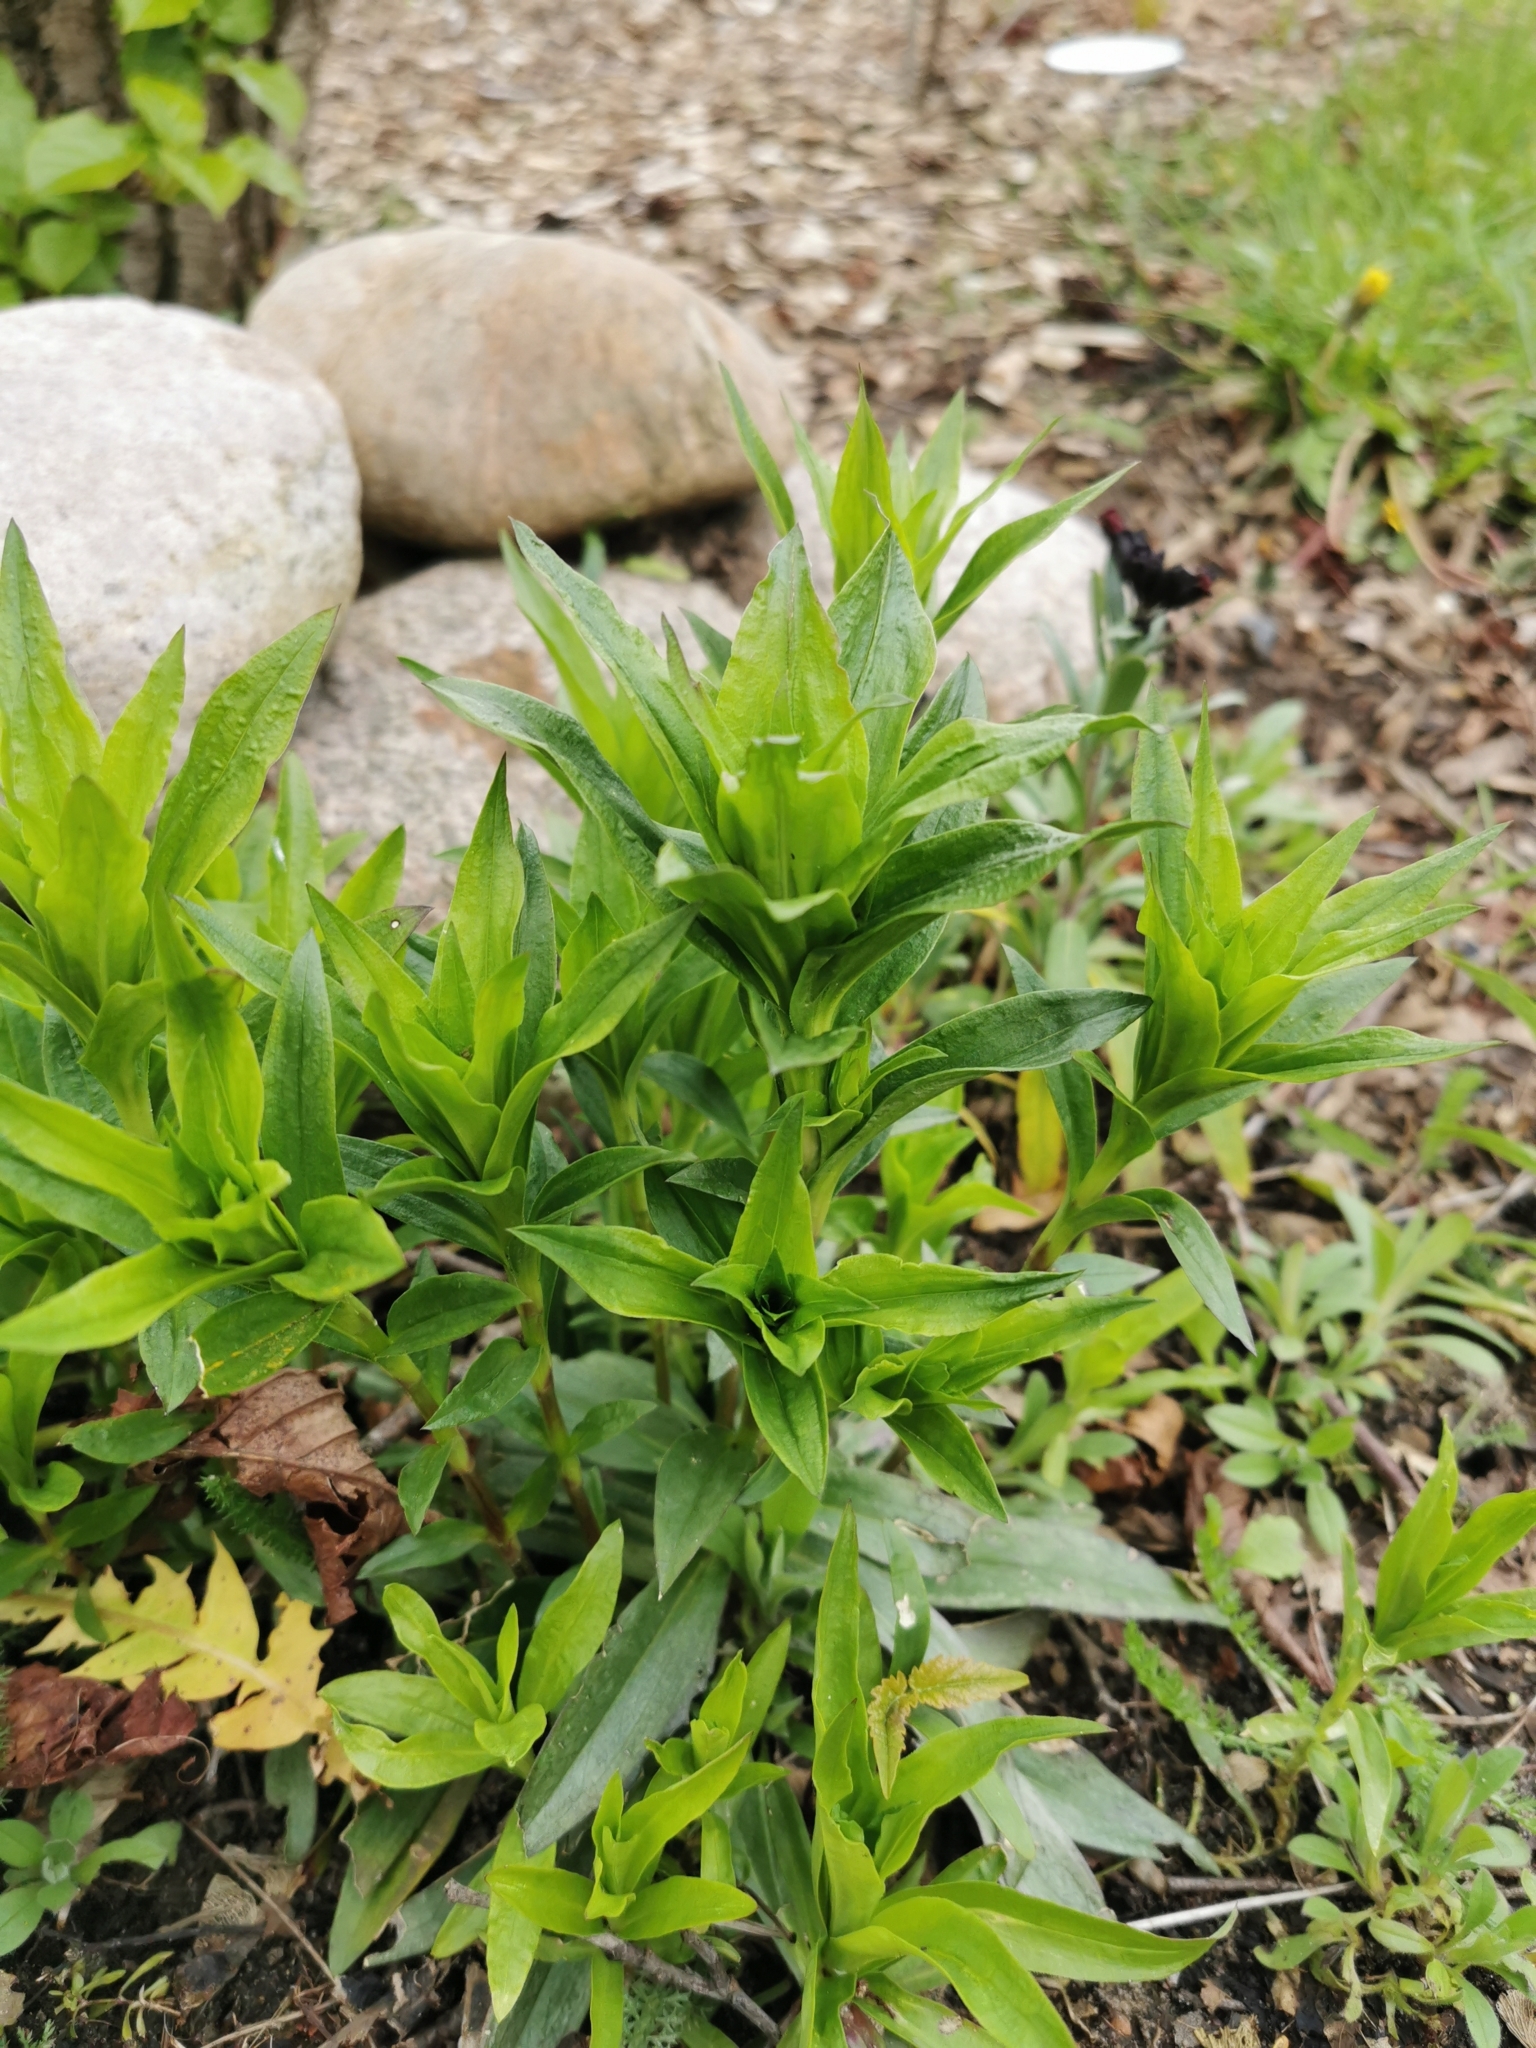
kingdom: Plantae
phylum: Tracheophyta
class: Magnoliopsida
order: Brassicales
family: Brassicaceae
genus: Erysimum
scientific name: Erysimum cheiri
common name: Wallflower
